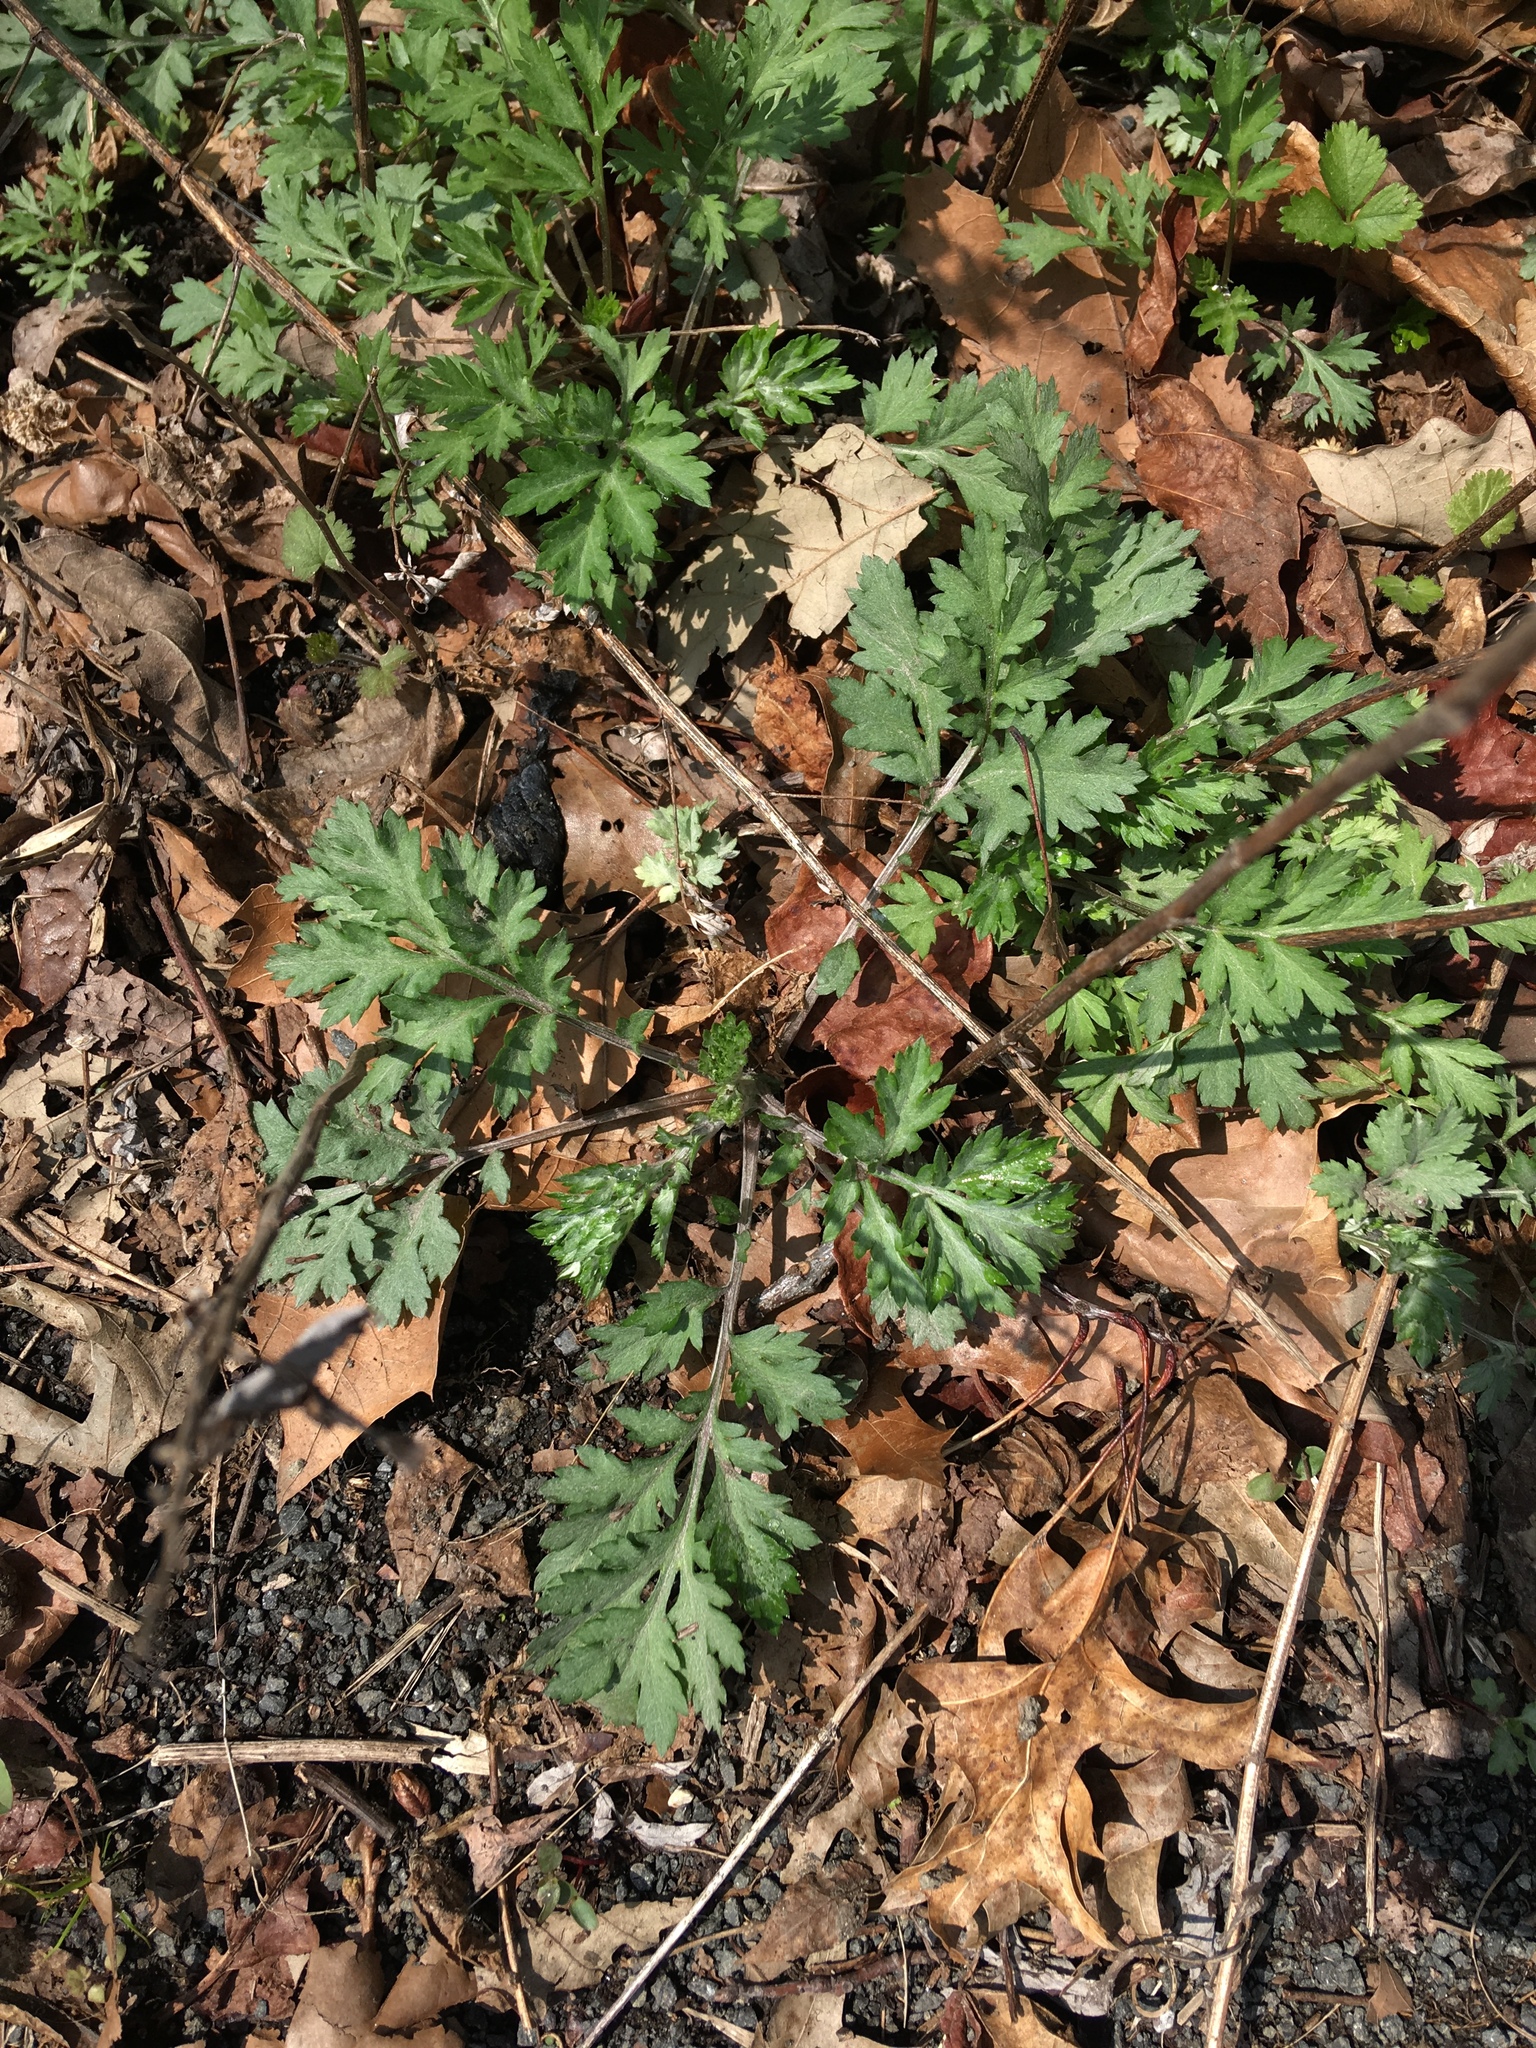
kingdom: Plantae
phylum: Tracheophyta
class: Magnoliopsida
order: Asterales
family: Asteraceae
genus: Artemisia
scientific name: Artemisia vulgaris
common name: Mugwort
